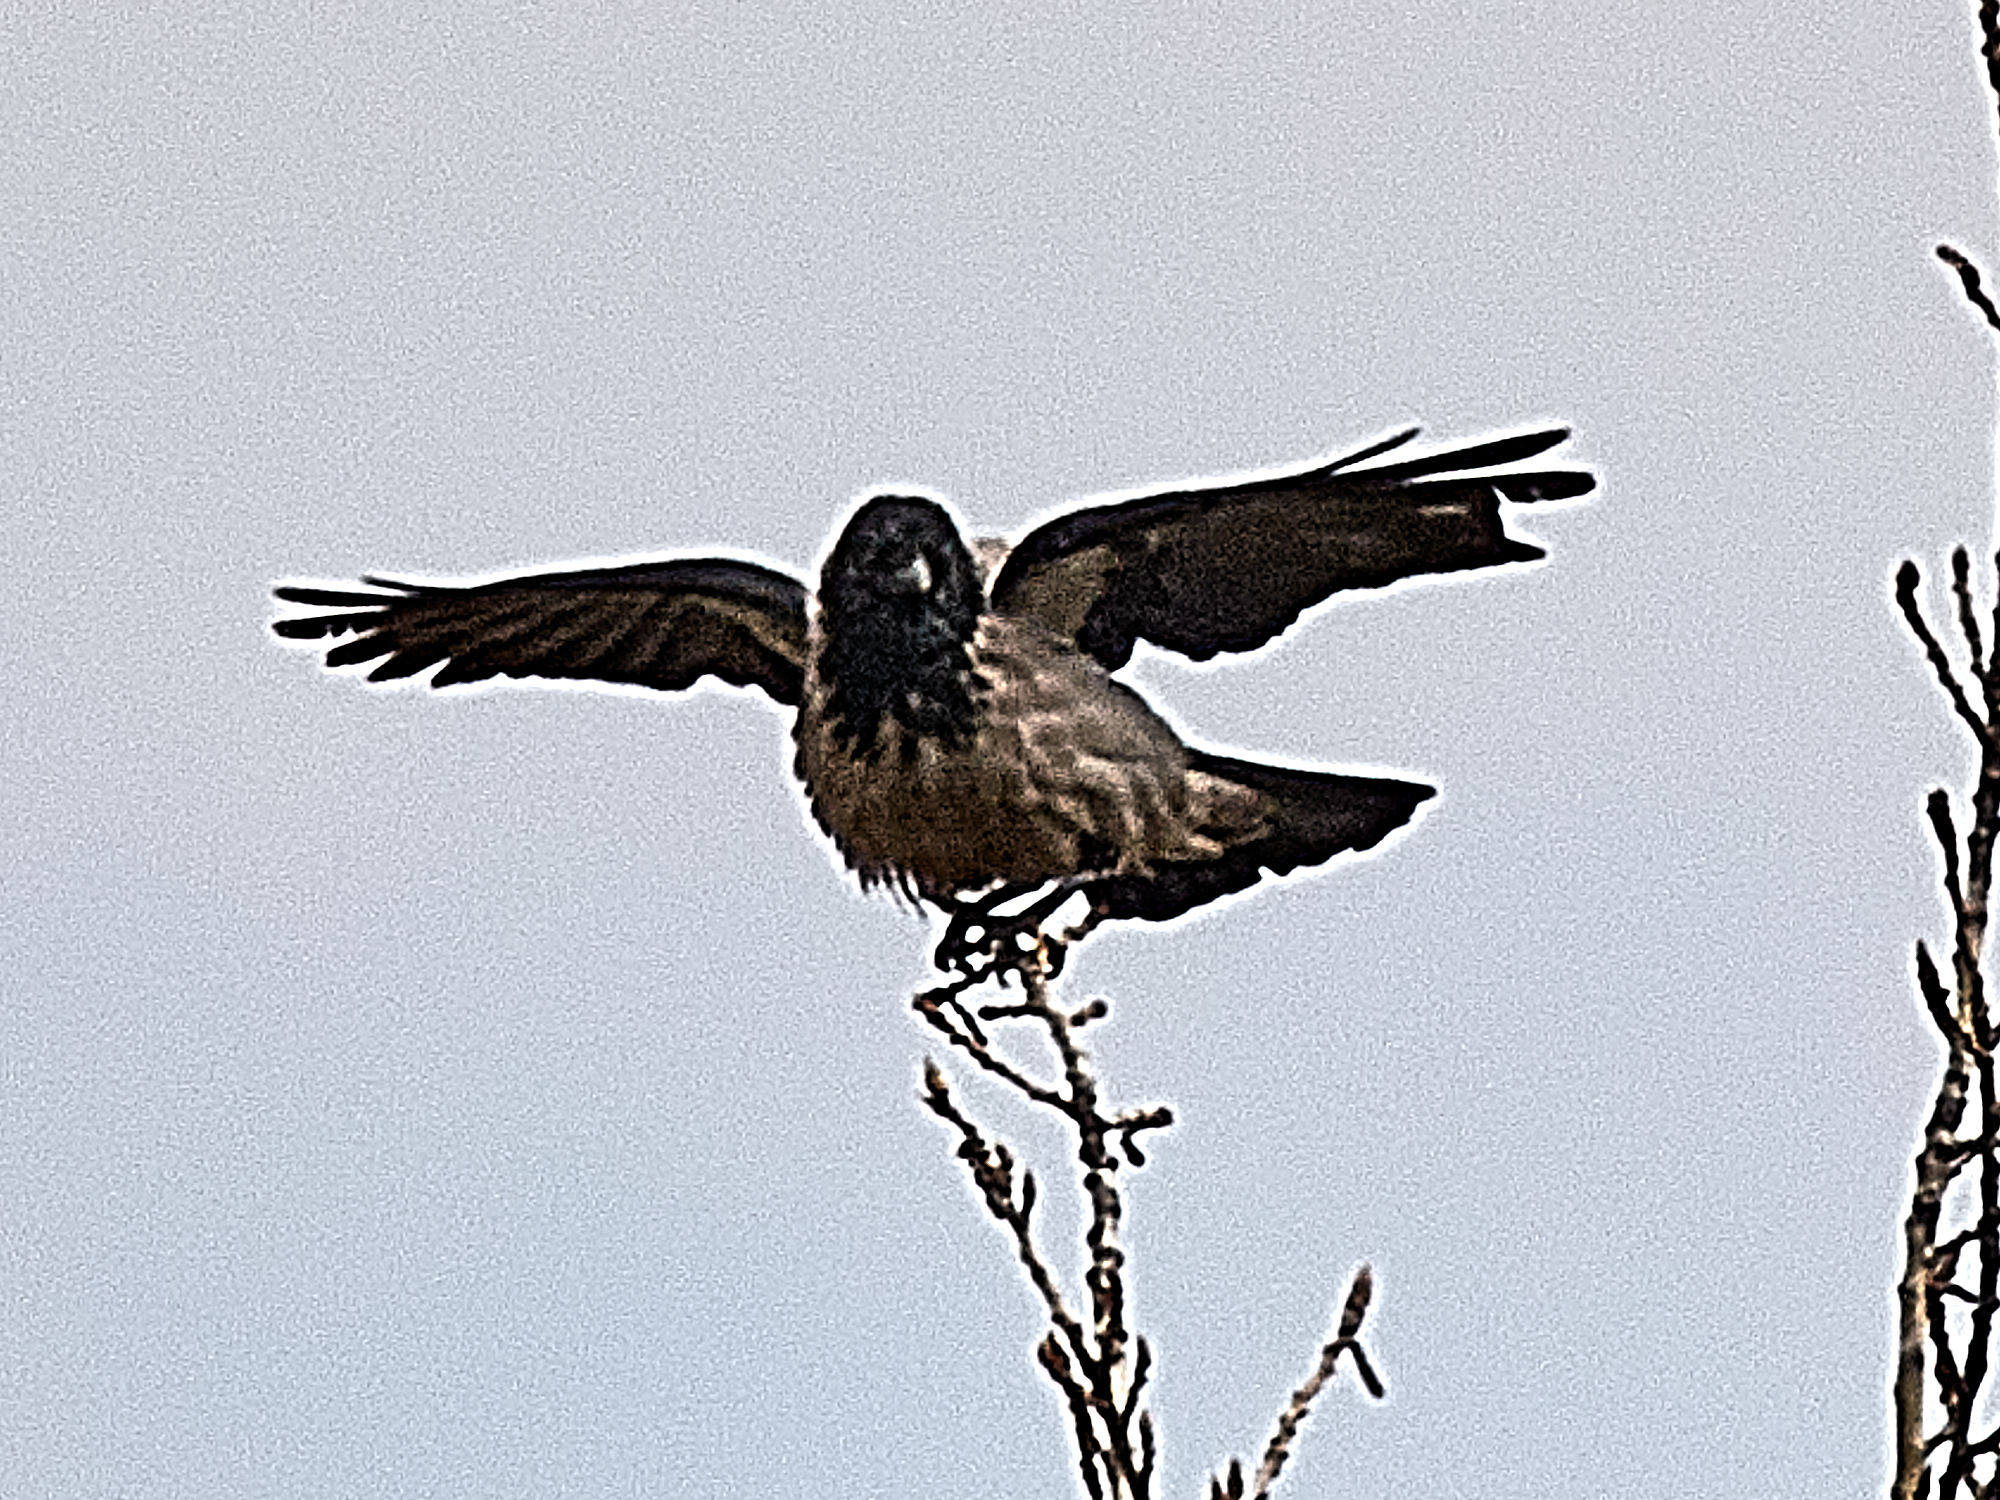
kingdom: Animalia
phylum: Chordata
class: Aves
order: Passeriformes
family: Corvidae
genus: Corvus
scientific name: Corvus cornix
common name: Hooded crow
